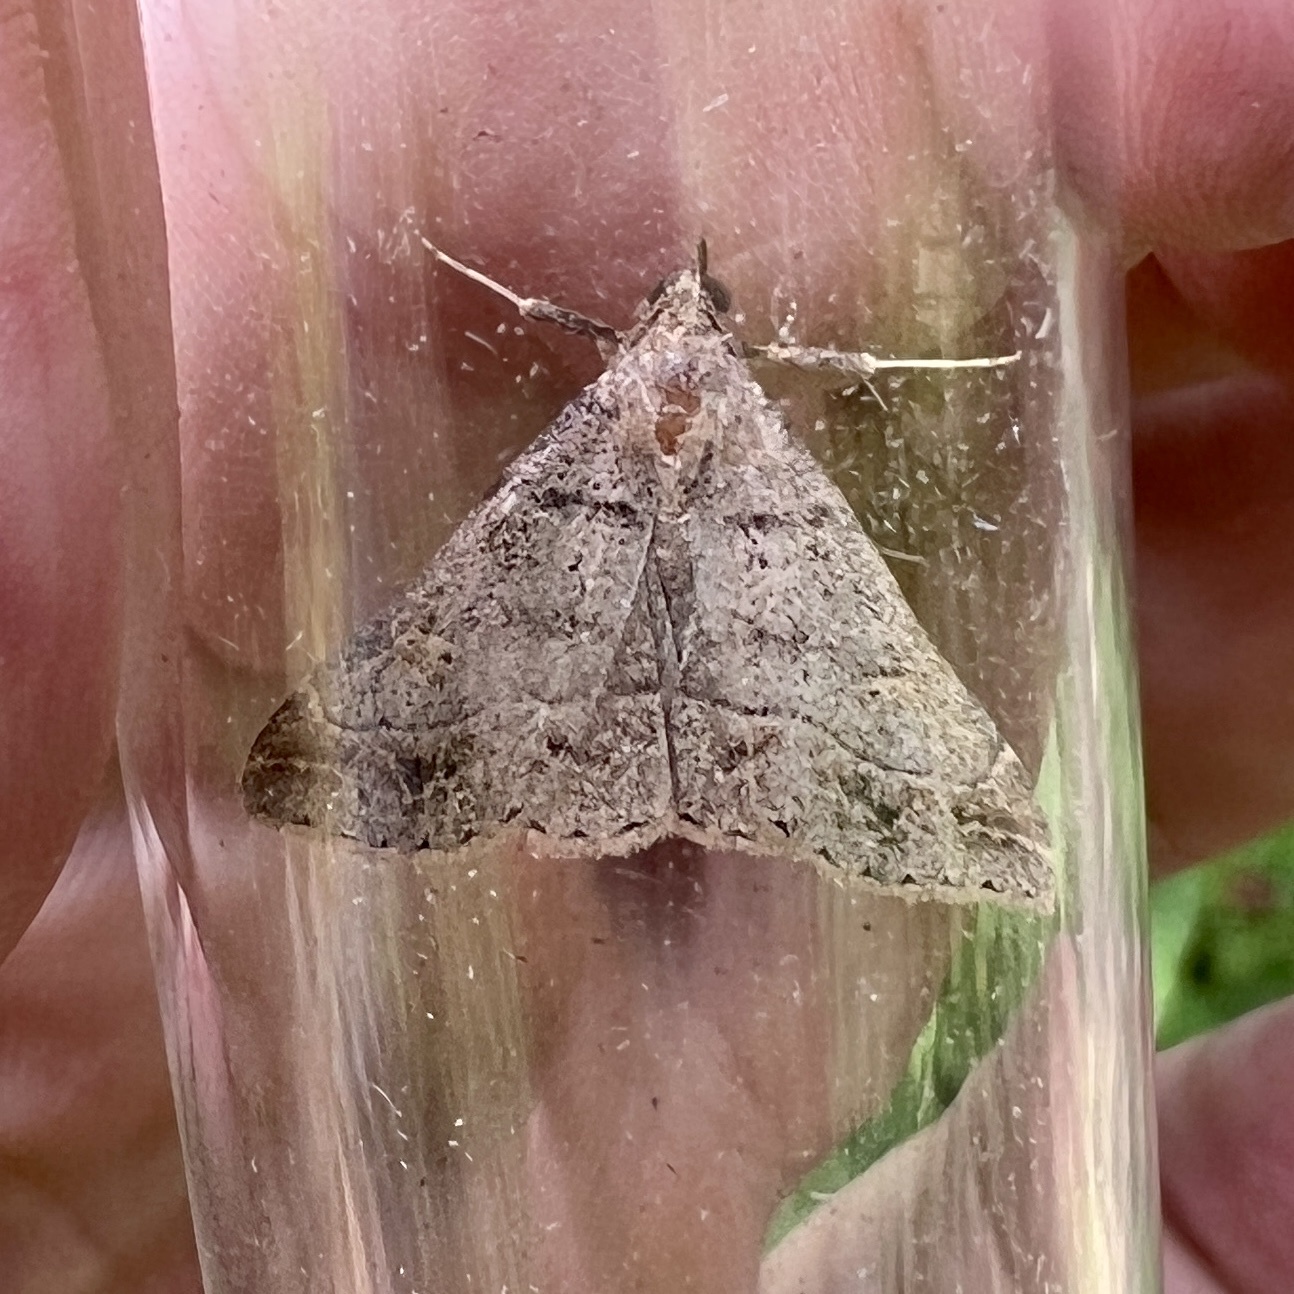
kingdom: Animalia
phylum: Arthropoda
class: Insecta
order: Lepidoptera
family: Erebidae
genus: Renia
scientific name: Renia flavipunctalis
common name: Yellow-spotted renia moth
